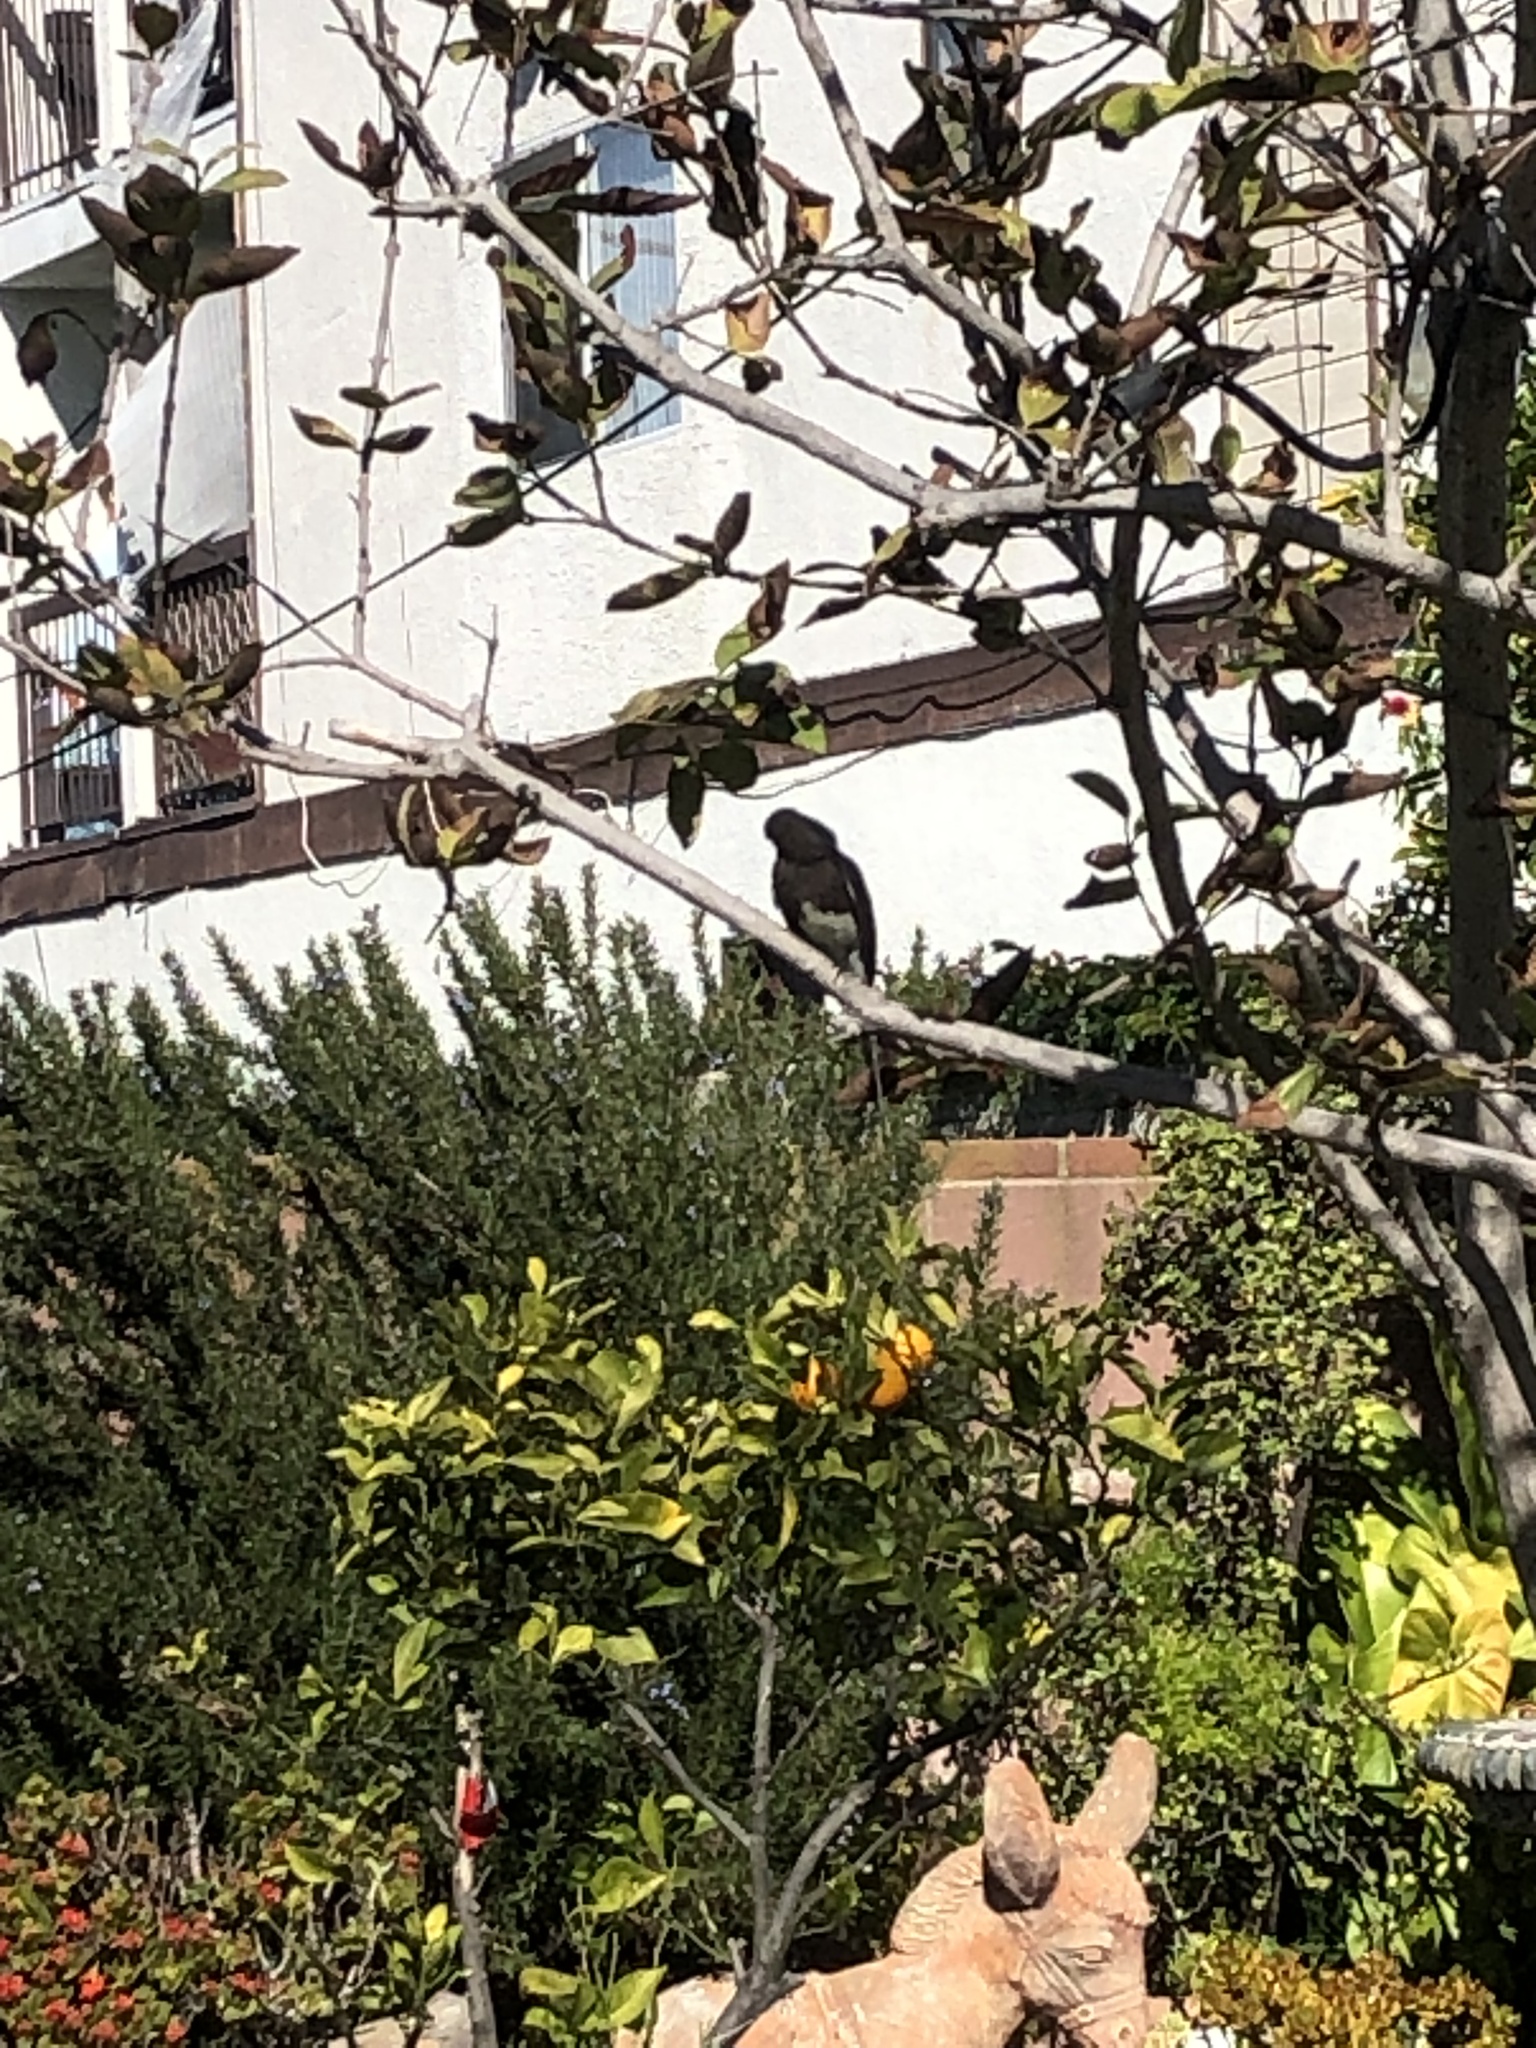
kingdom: Animalia
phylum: Chordata
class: Aves
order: Passeriformes
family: Tyrannidae
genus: Sayornis
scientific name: Sayornis nigricans
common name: Black phoebe
